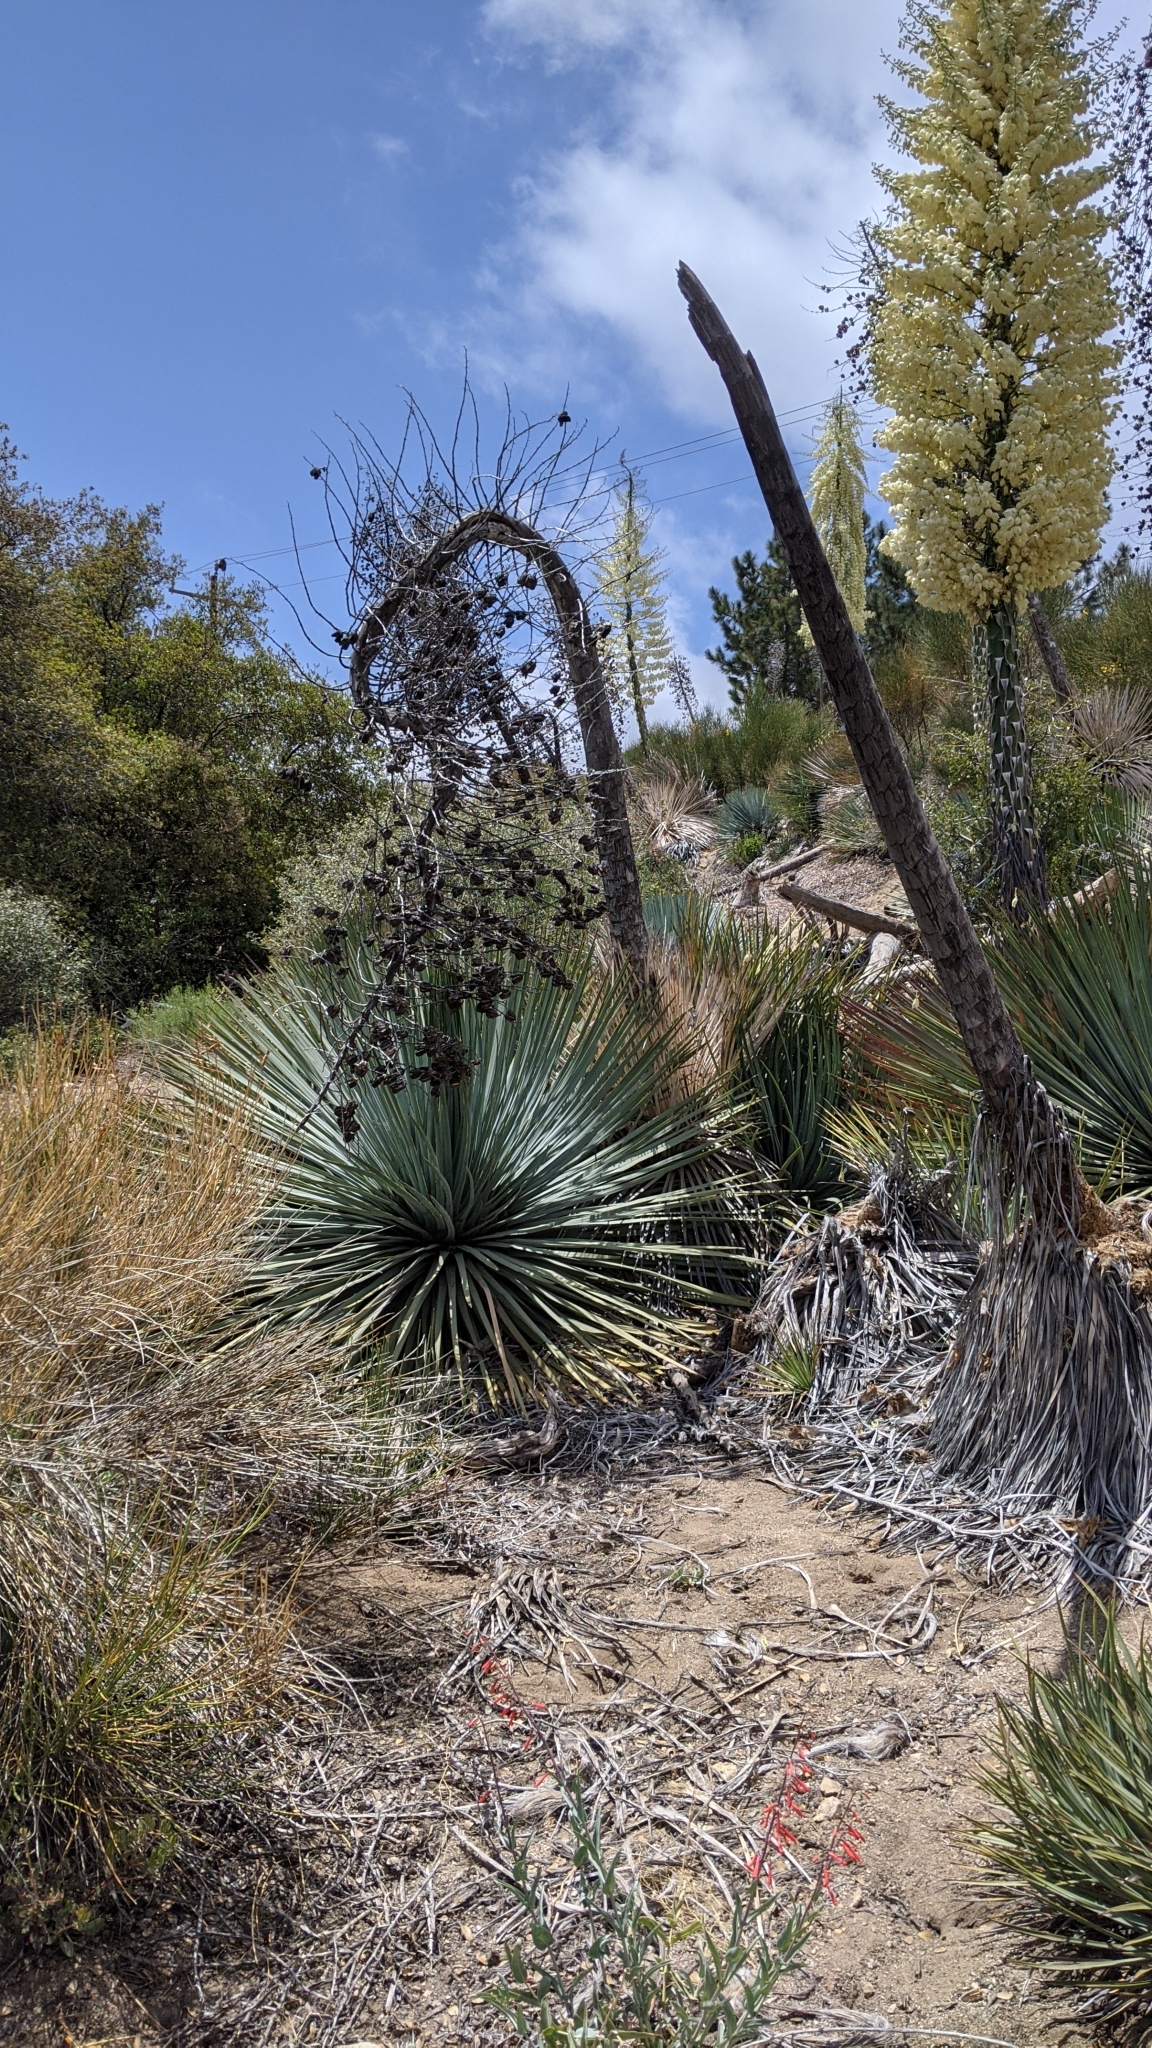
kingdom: Plantae
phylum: Tracheophyta
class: Liliopsida
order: Asparagales
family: Asparagaceae
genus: Hesperoyucca
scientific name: Hesperoyucca whipplei
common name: Our lord's-candle
